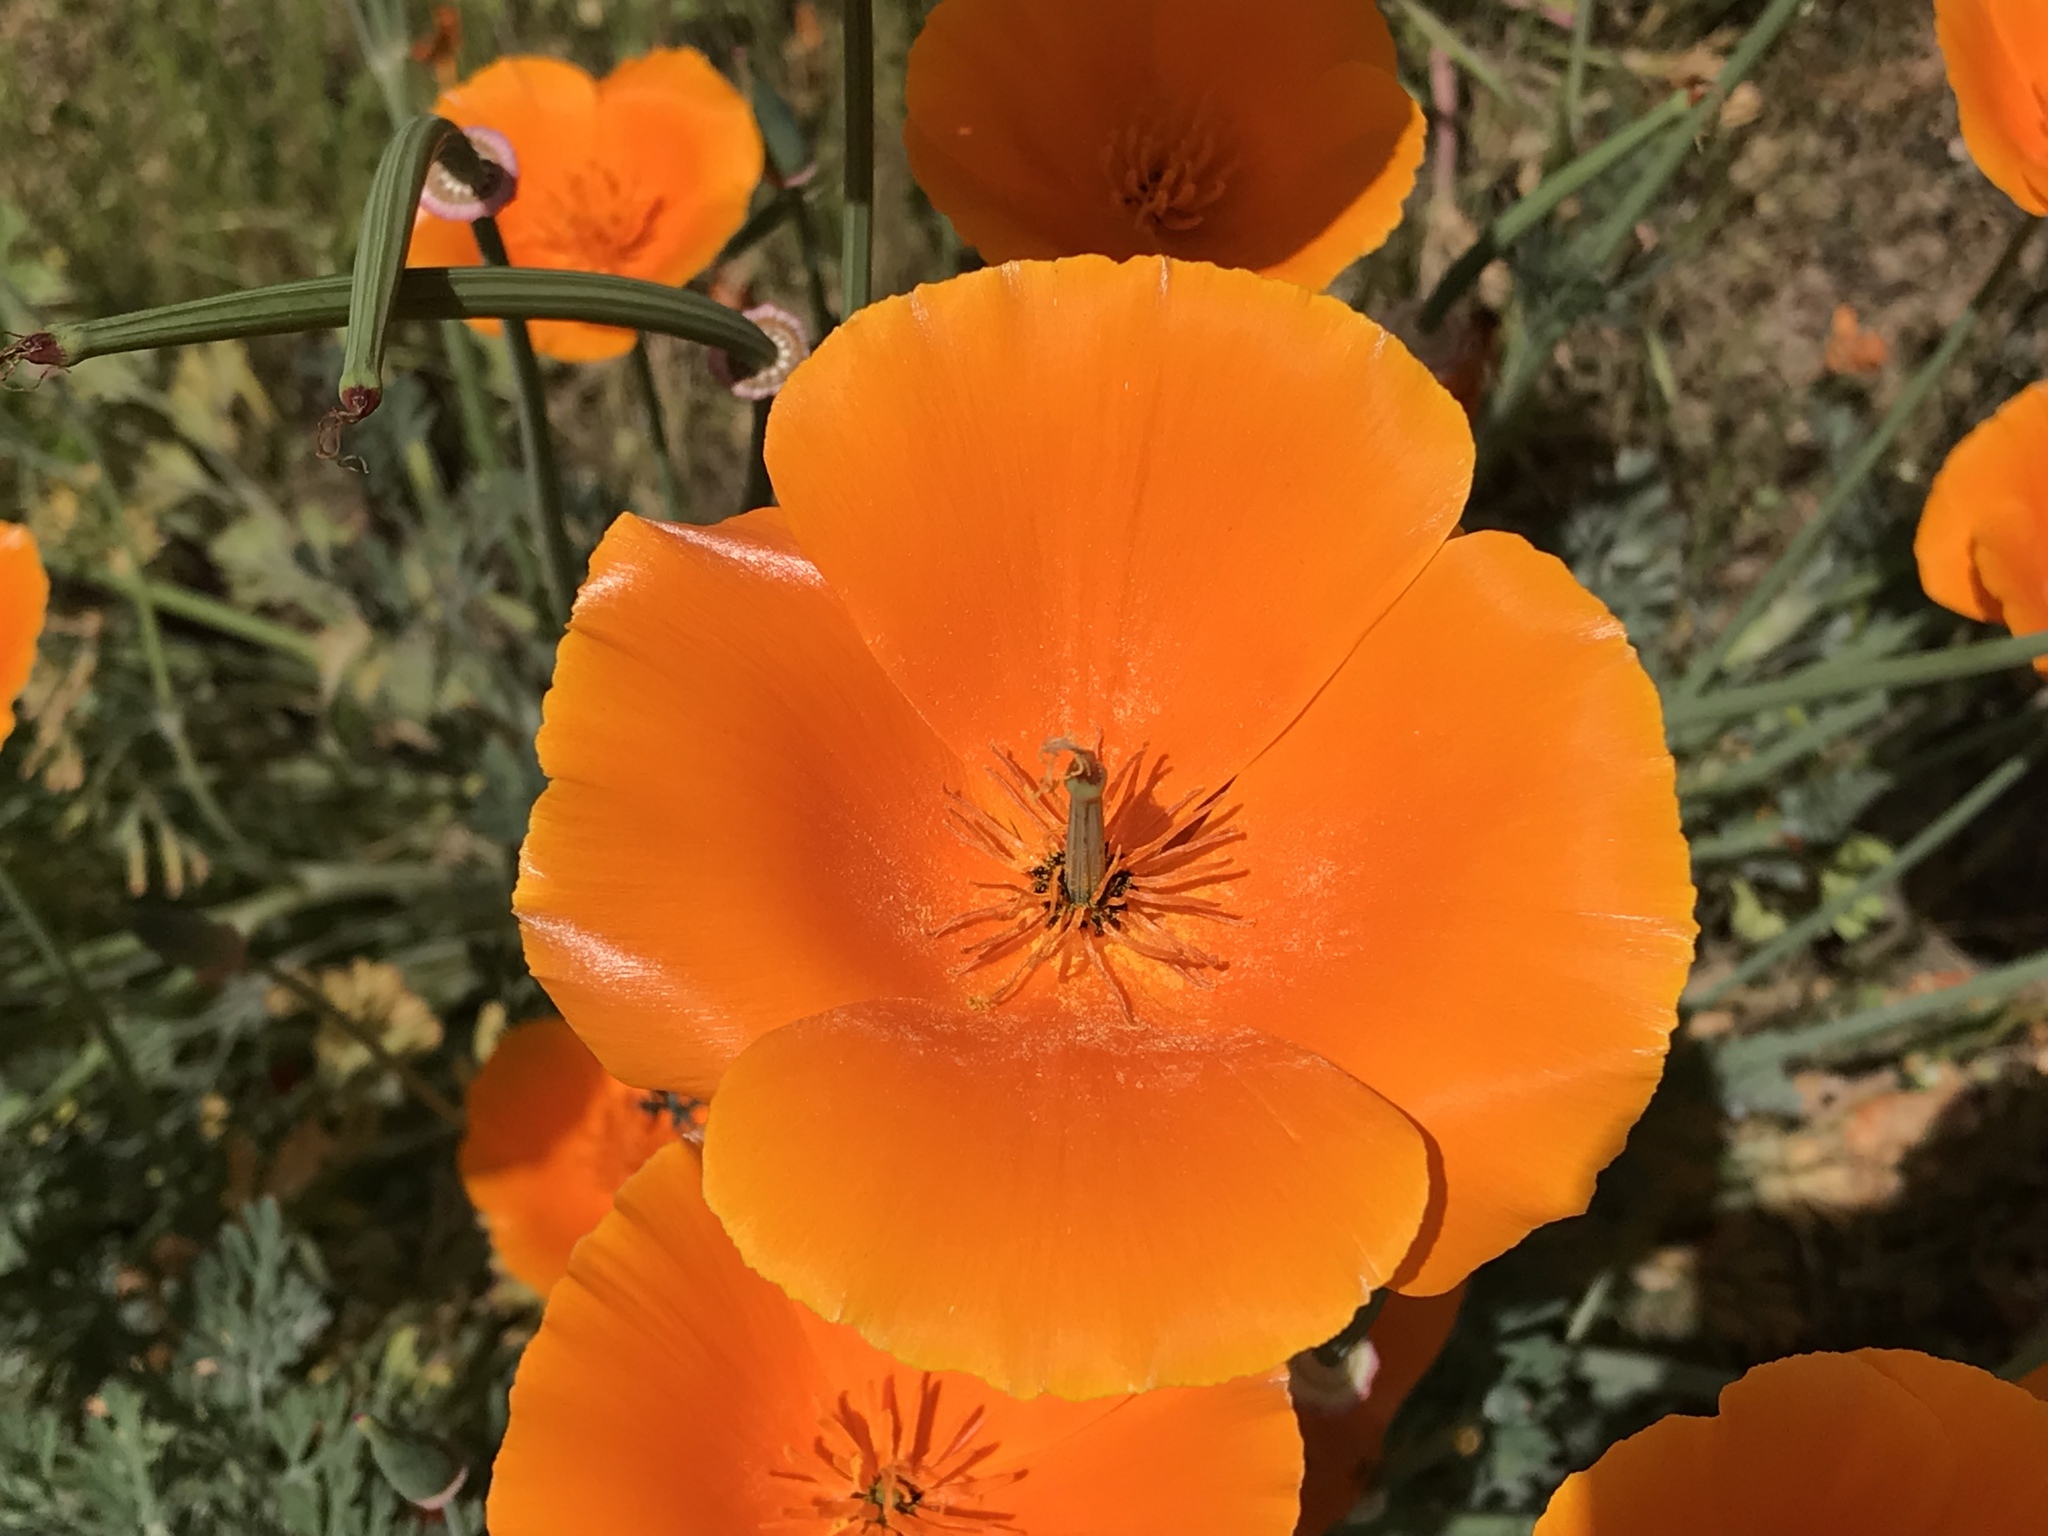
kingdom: Plantae
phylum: Tracheophyta
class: Magnoliopsida
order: Ranunculales
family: Papaveraceae
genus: Eschscholzia
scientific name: Eschscholzia californica
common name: California poppy
